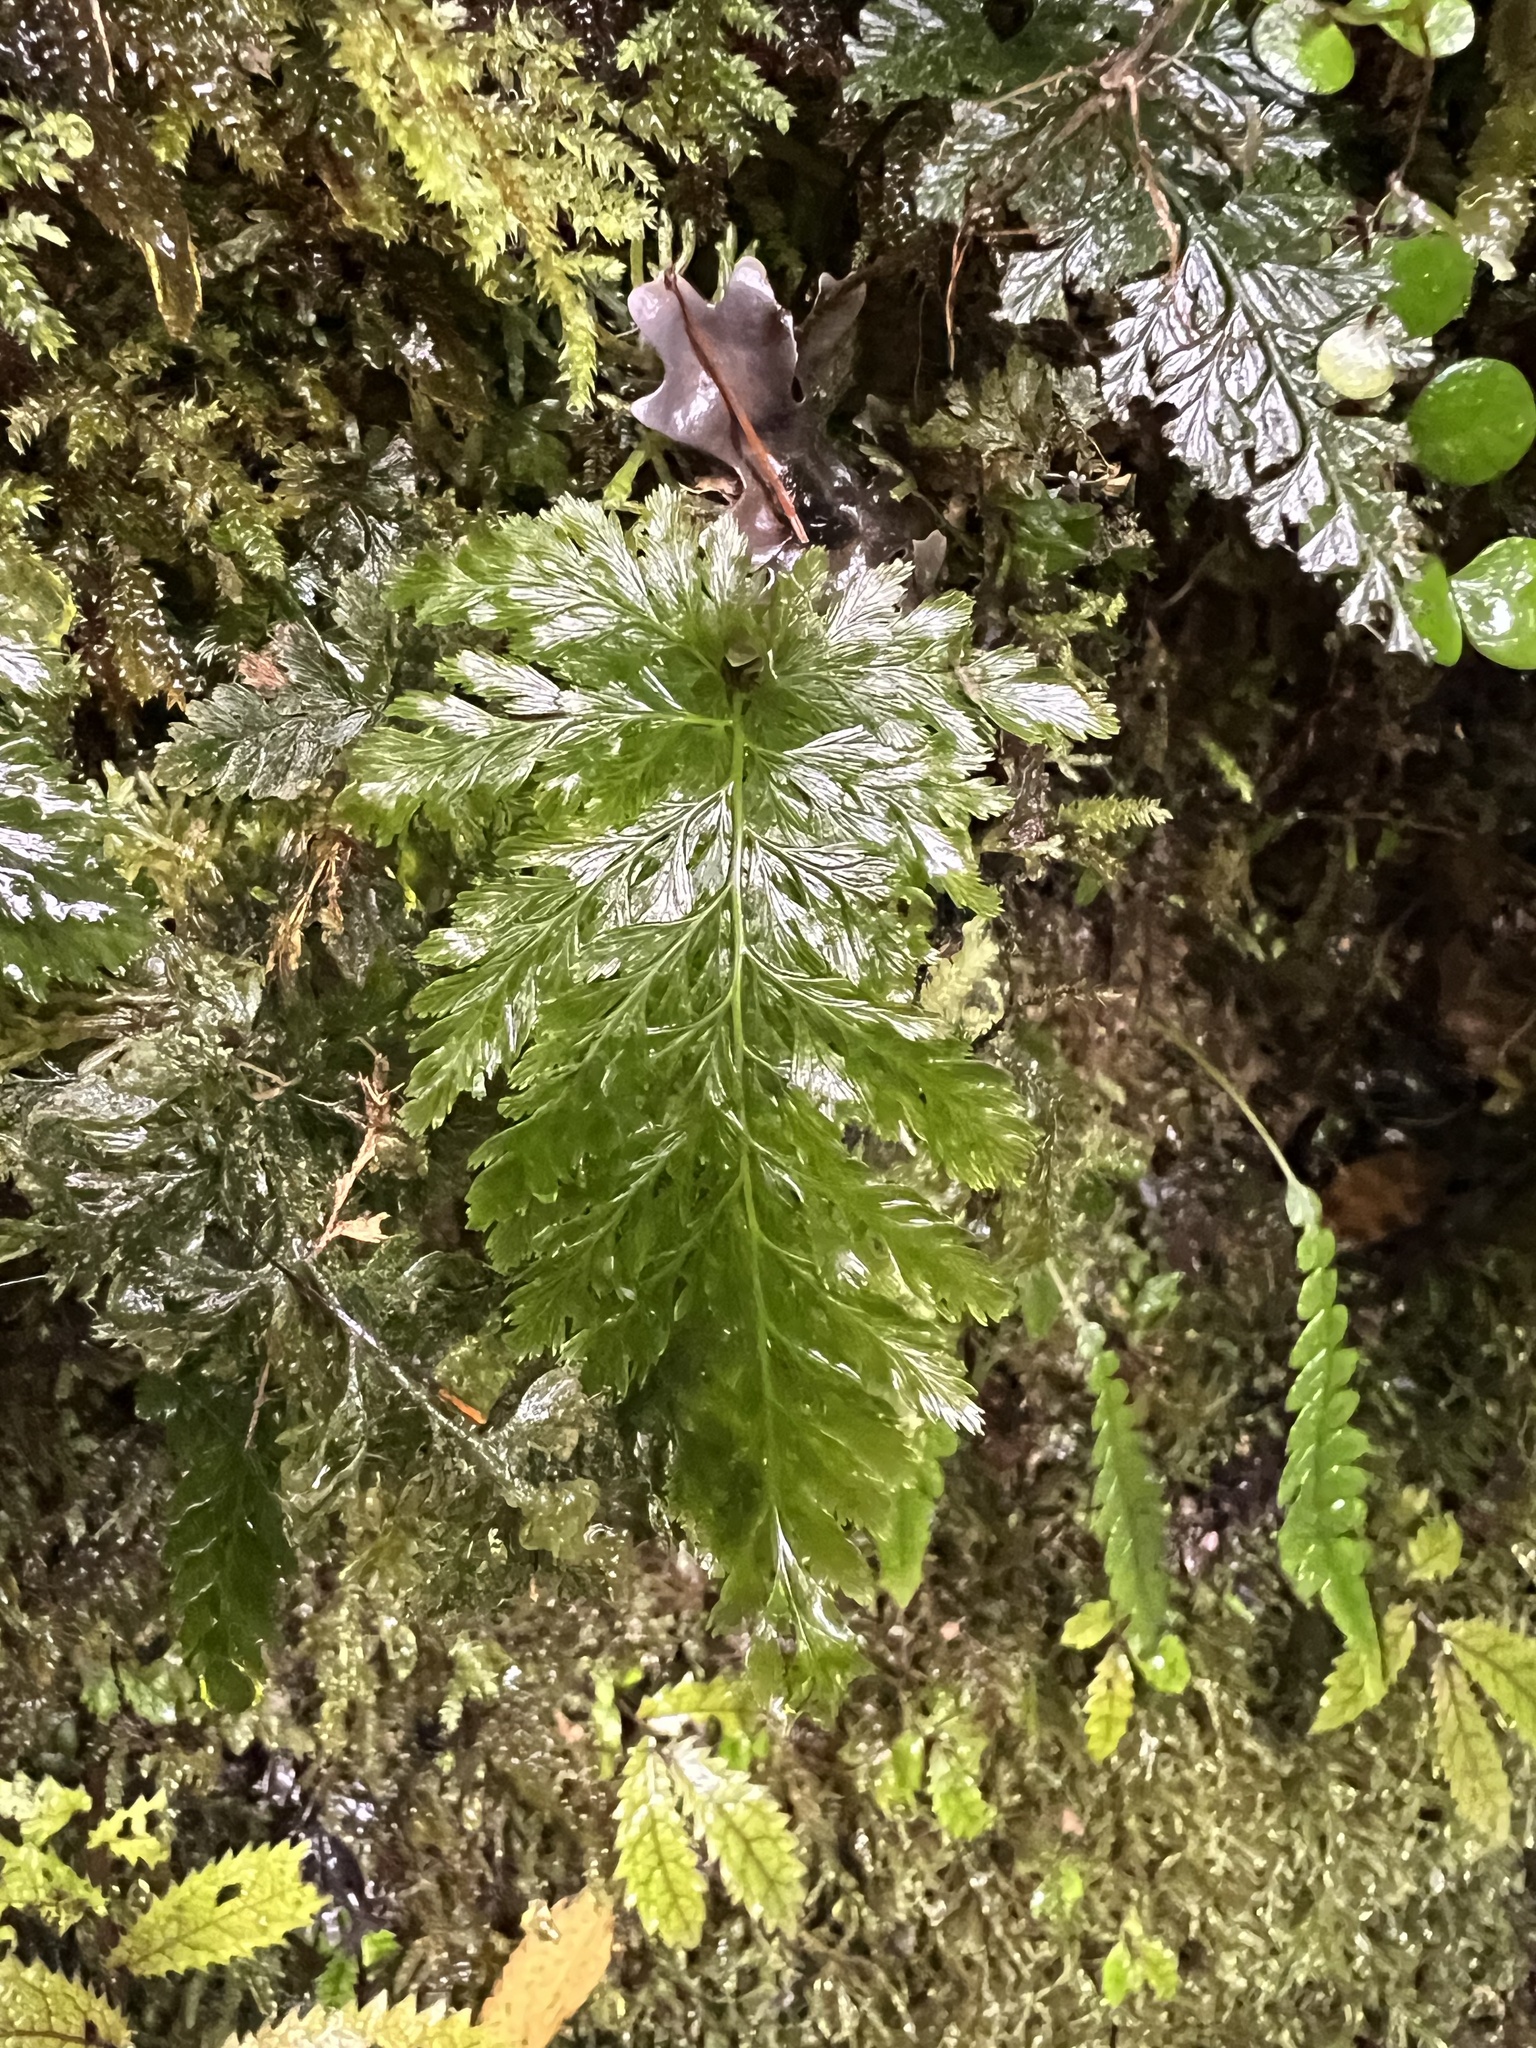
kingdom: Plantae
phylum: Tracheophyta
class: Polypodiopsida
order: Hymenophyllales
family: Hymenophyllaceae
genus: Abrodictyum
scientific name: Abrodictyum elongatum
